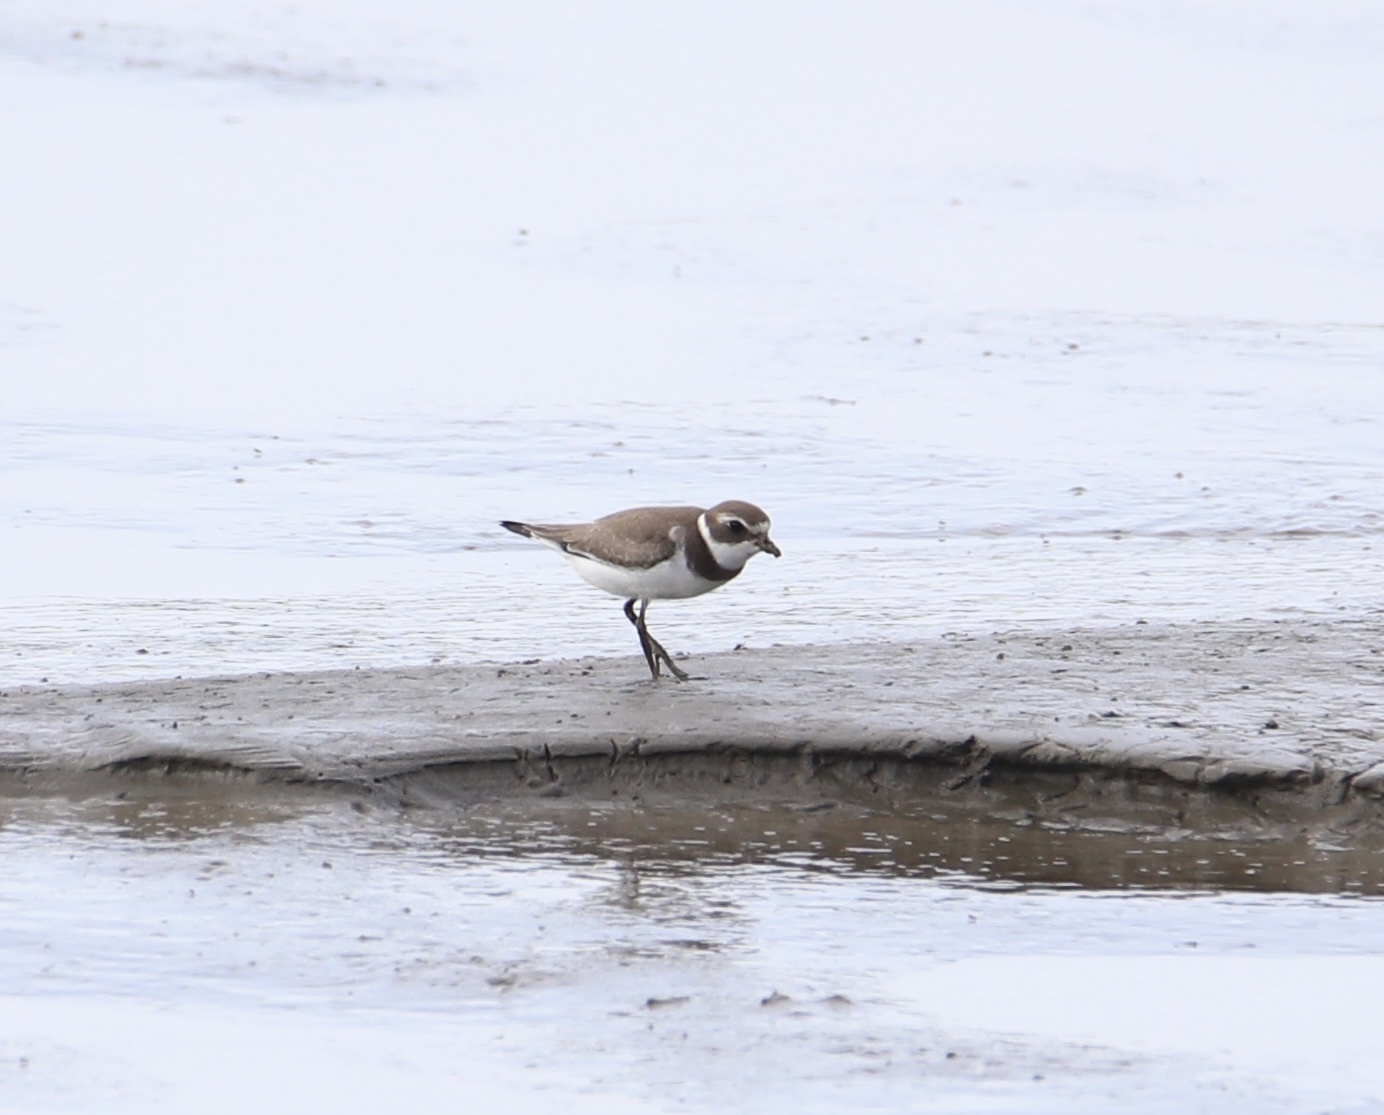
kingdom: Animalia
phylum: Chordata
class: Aves
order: Charadriiformes
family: Charadriidae
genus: Charadrius
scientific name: Charadrius semipalmatus
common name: Semipalmated plover
